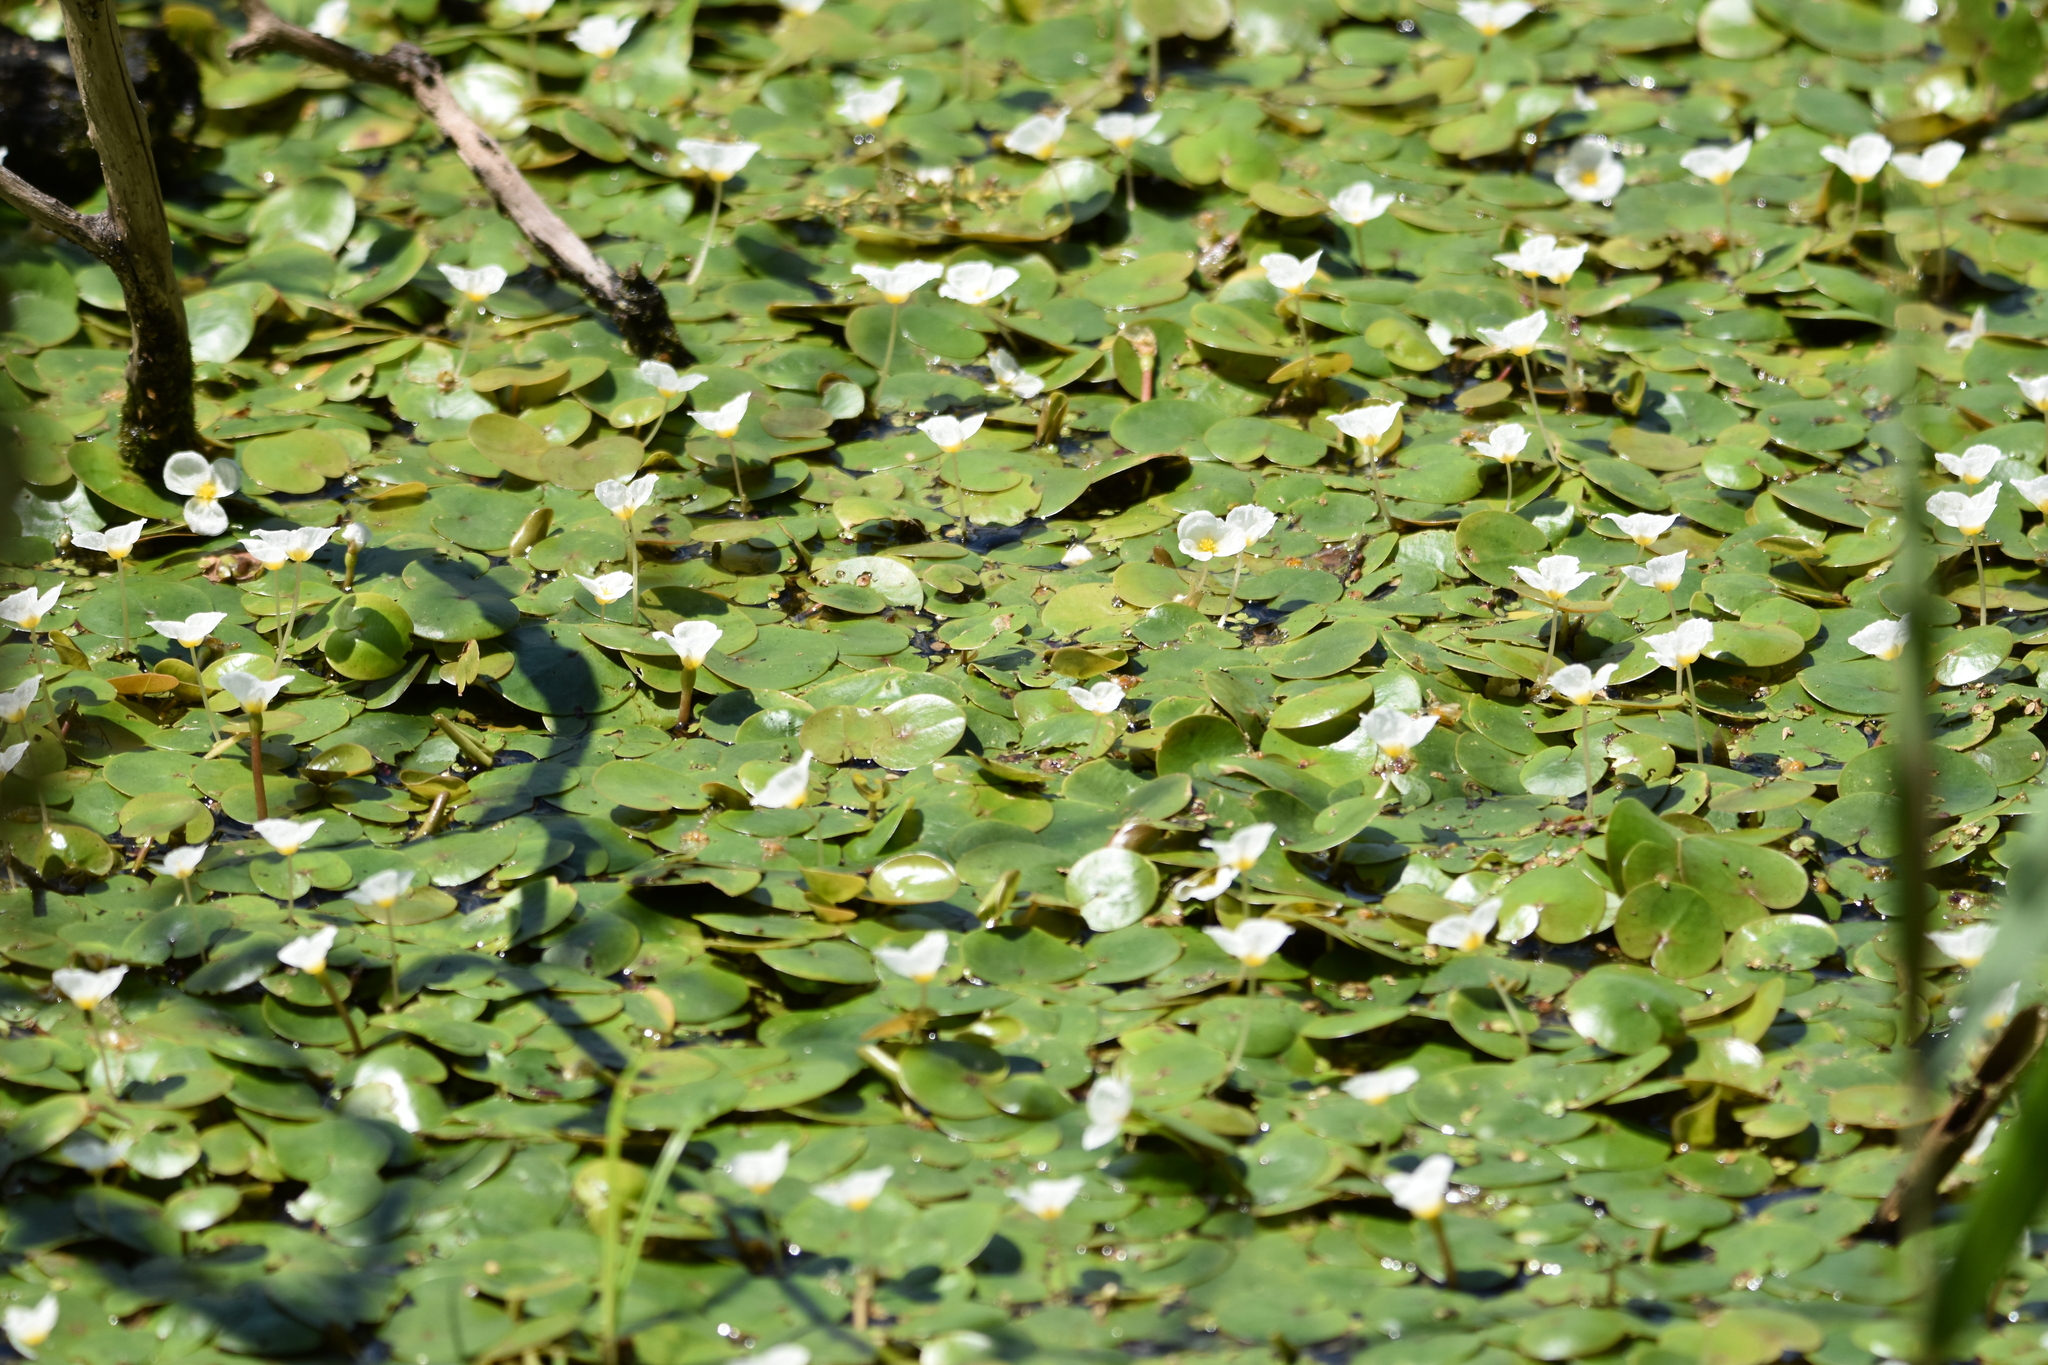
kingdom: Plantae
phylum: Tracheophyta
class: Liliopsida
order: Alismatales
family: Hydrocharitaceae
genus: Hydrocharis
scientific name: Hydrocharis morsus-ranae
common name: Frogbit
